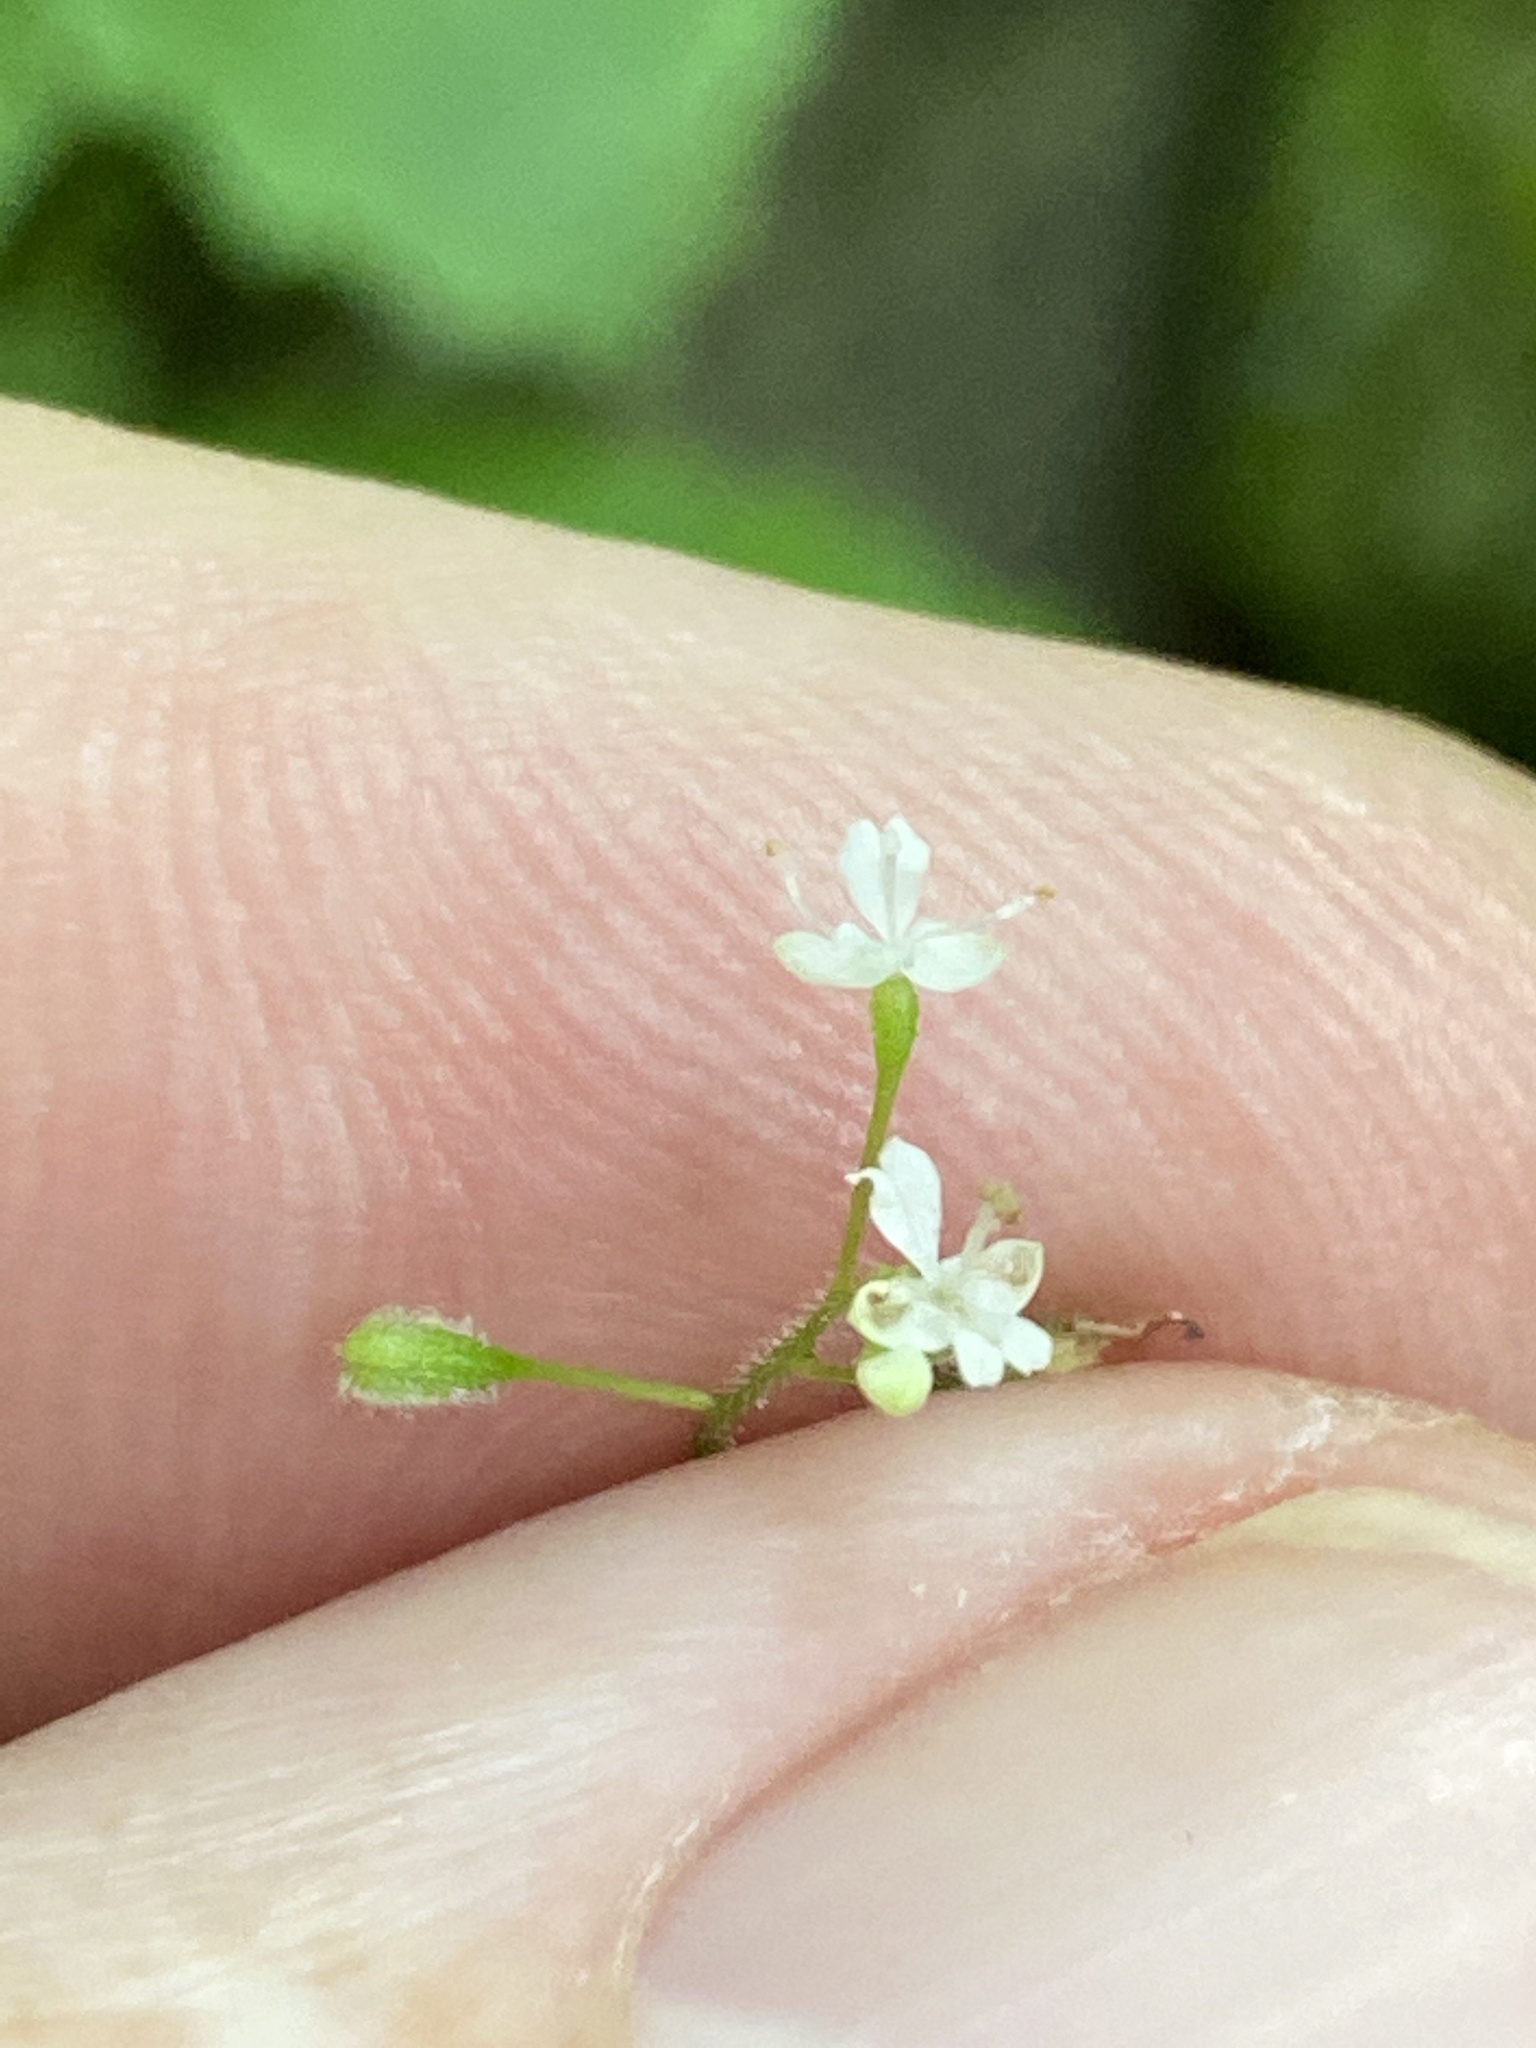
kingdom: Plantae
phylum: Tracheophyta
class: Magnoliopsida
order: Myrtales
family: Onagraceae
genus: Circaea
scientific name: Circaea alpina
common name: Alpine enchanter's-nightshade
